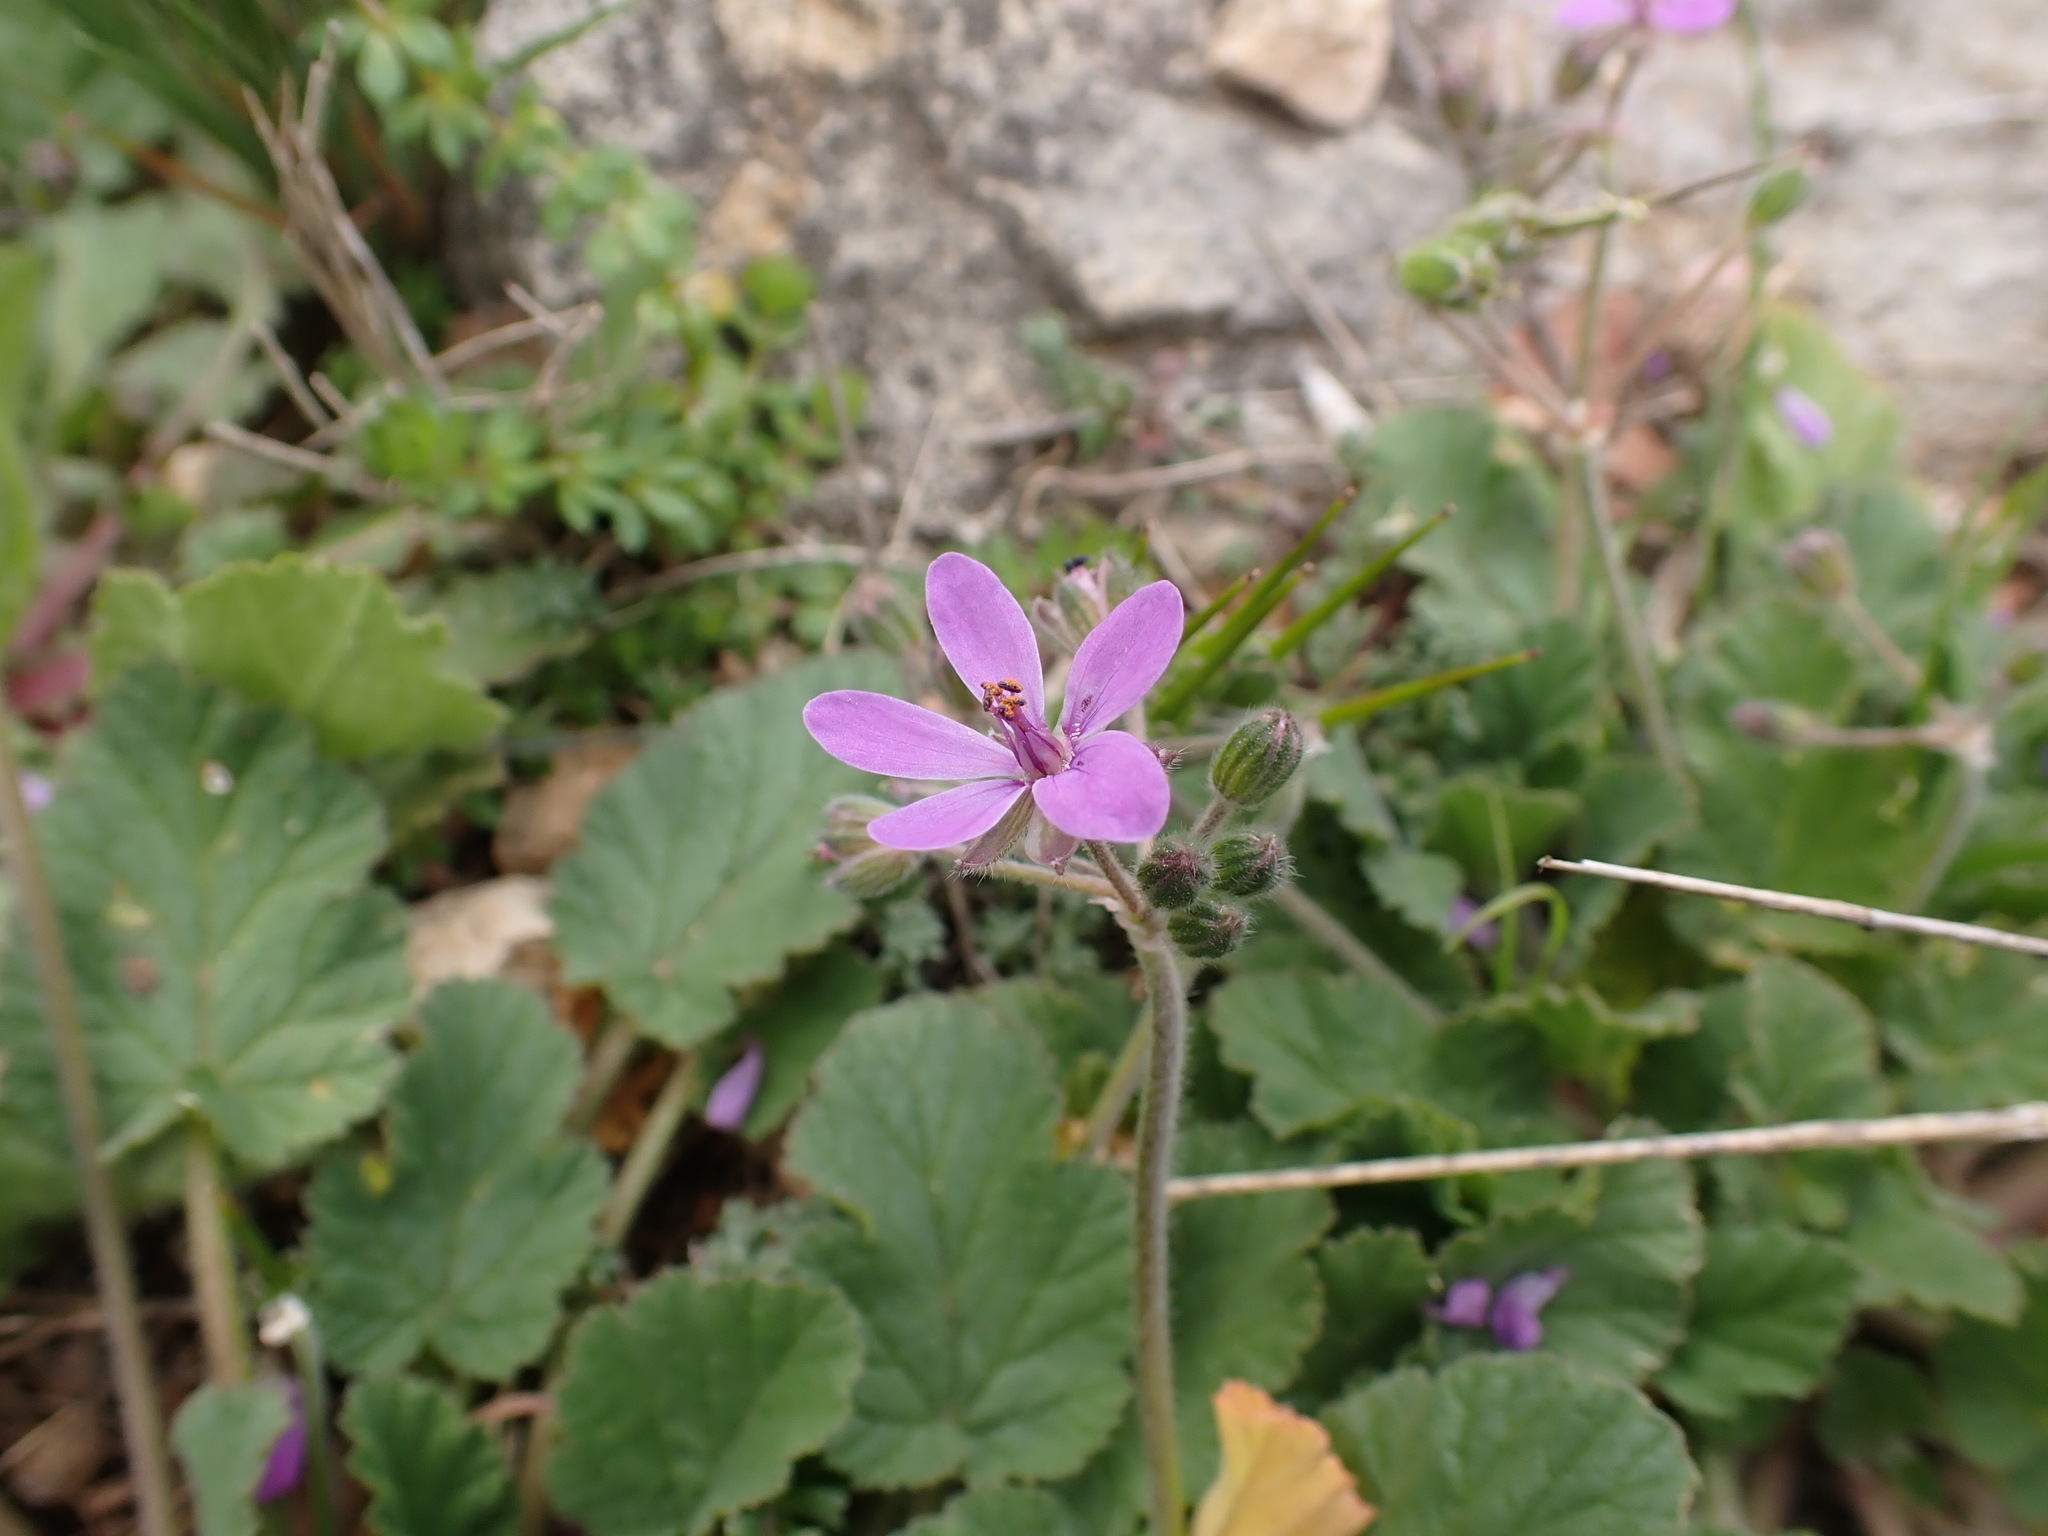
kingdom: Plantae
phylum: Tracheophyta
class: Magnoliopsida
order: Geraniales
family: Geraniaceae
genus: Erodium
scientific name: Erodium malacoides
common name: Soft stork's-bill
